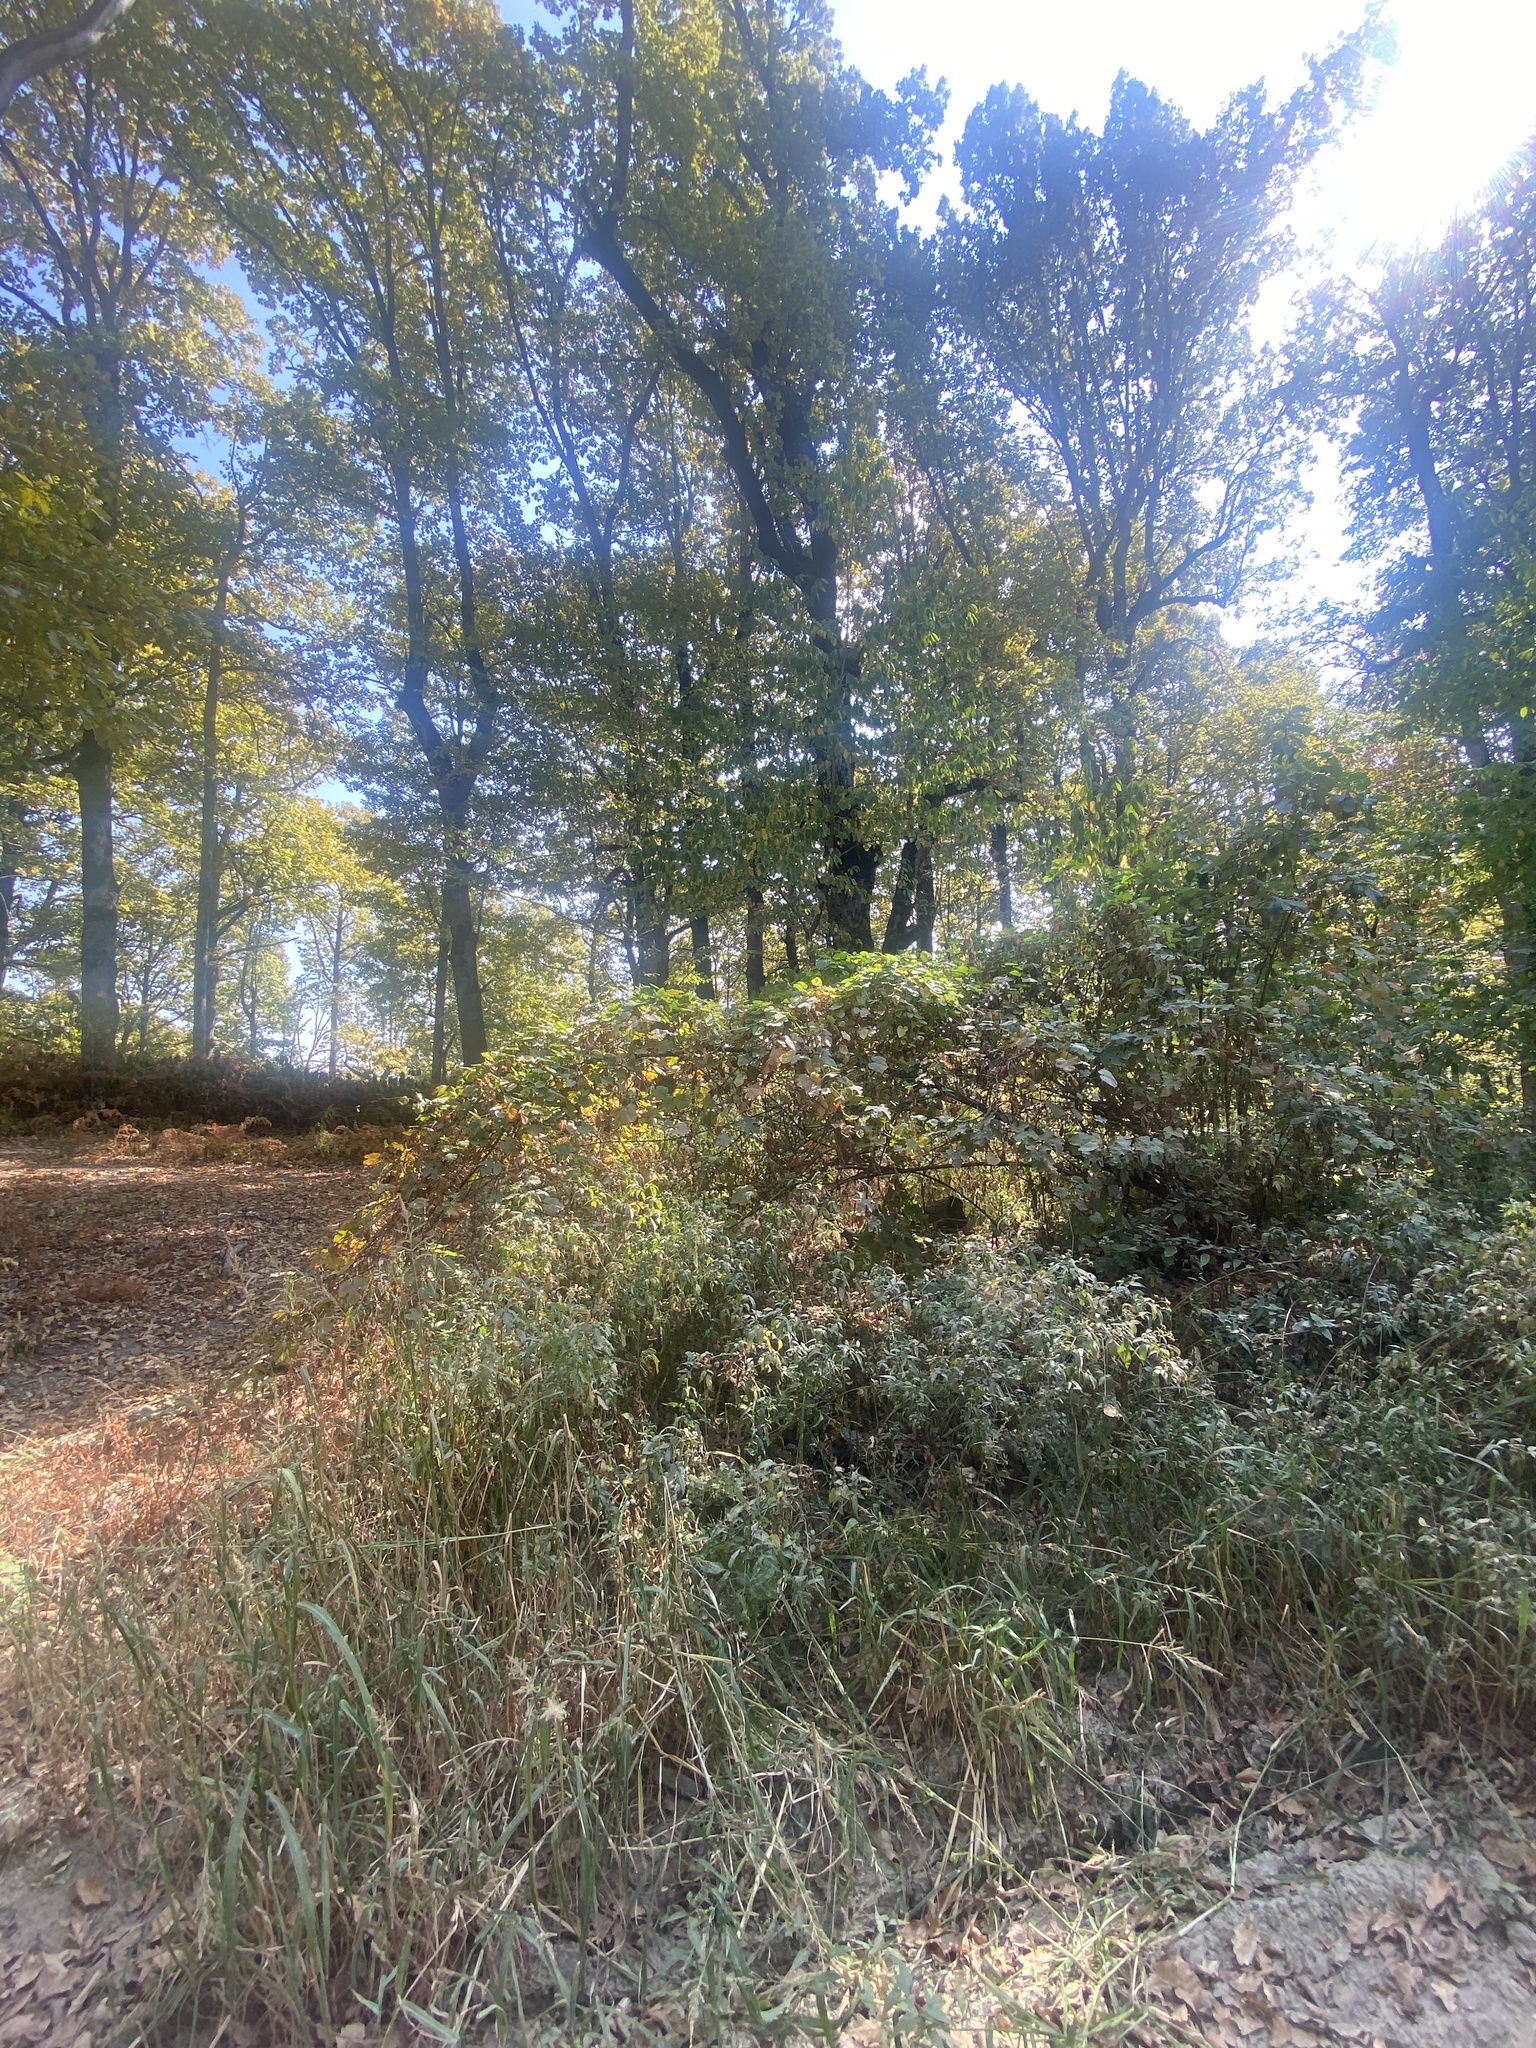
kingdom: Plantae
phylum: Tracheophyta
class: Magnoliopsida
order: Vitales
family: Vitaceae
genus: Vitis
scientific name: Vitis gmelinii
